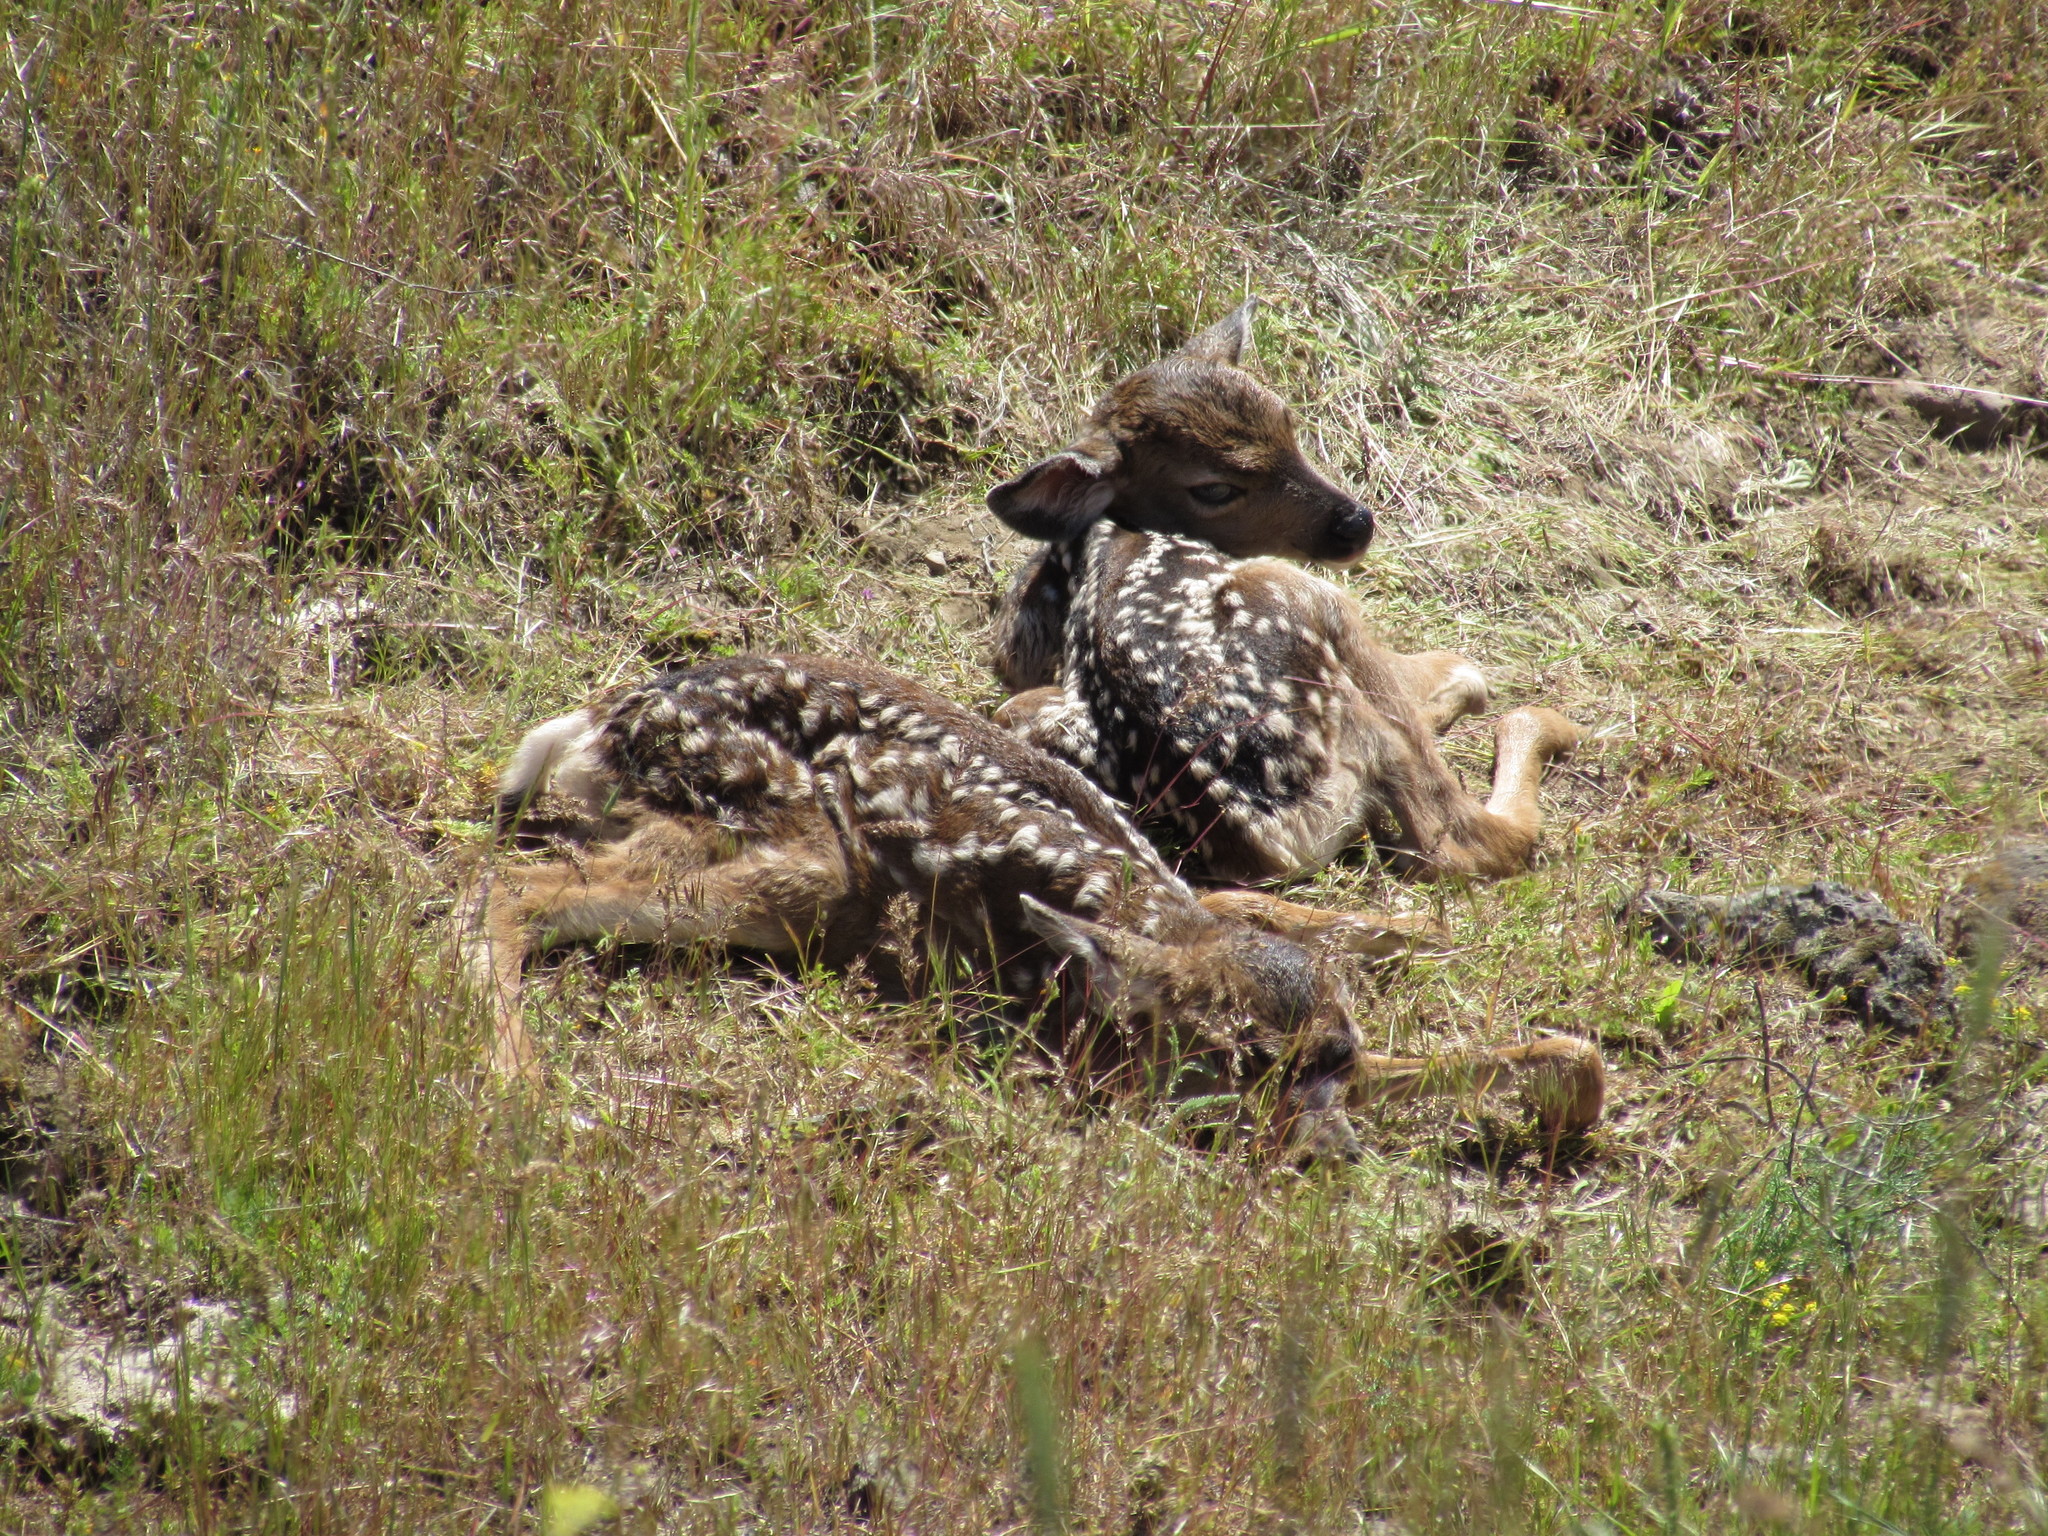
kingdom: Animalia
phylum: Chordata
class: Mammalia
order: Artiodactyla
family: Cervidae
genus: Odocoileus
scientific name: Odocoileus hemionus
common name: Mule deer
